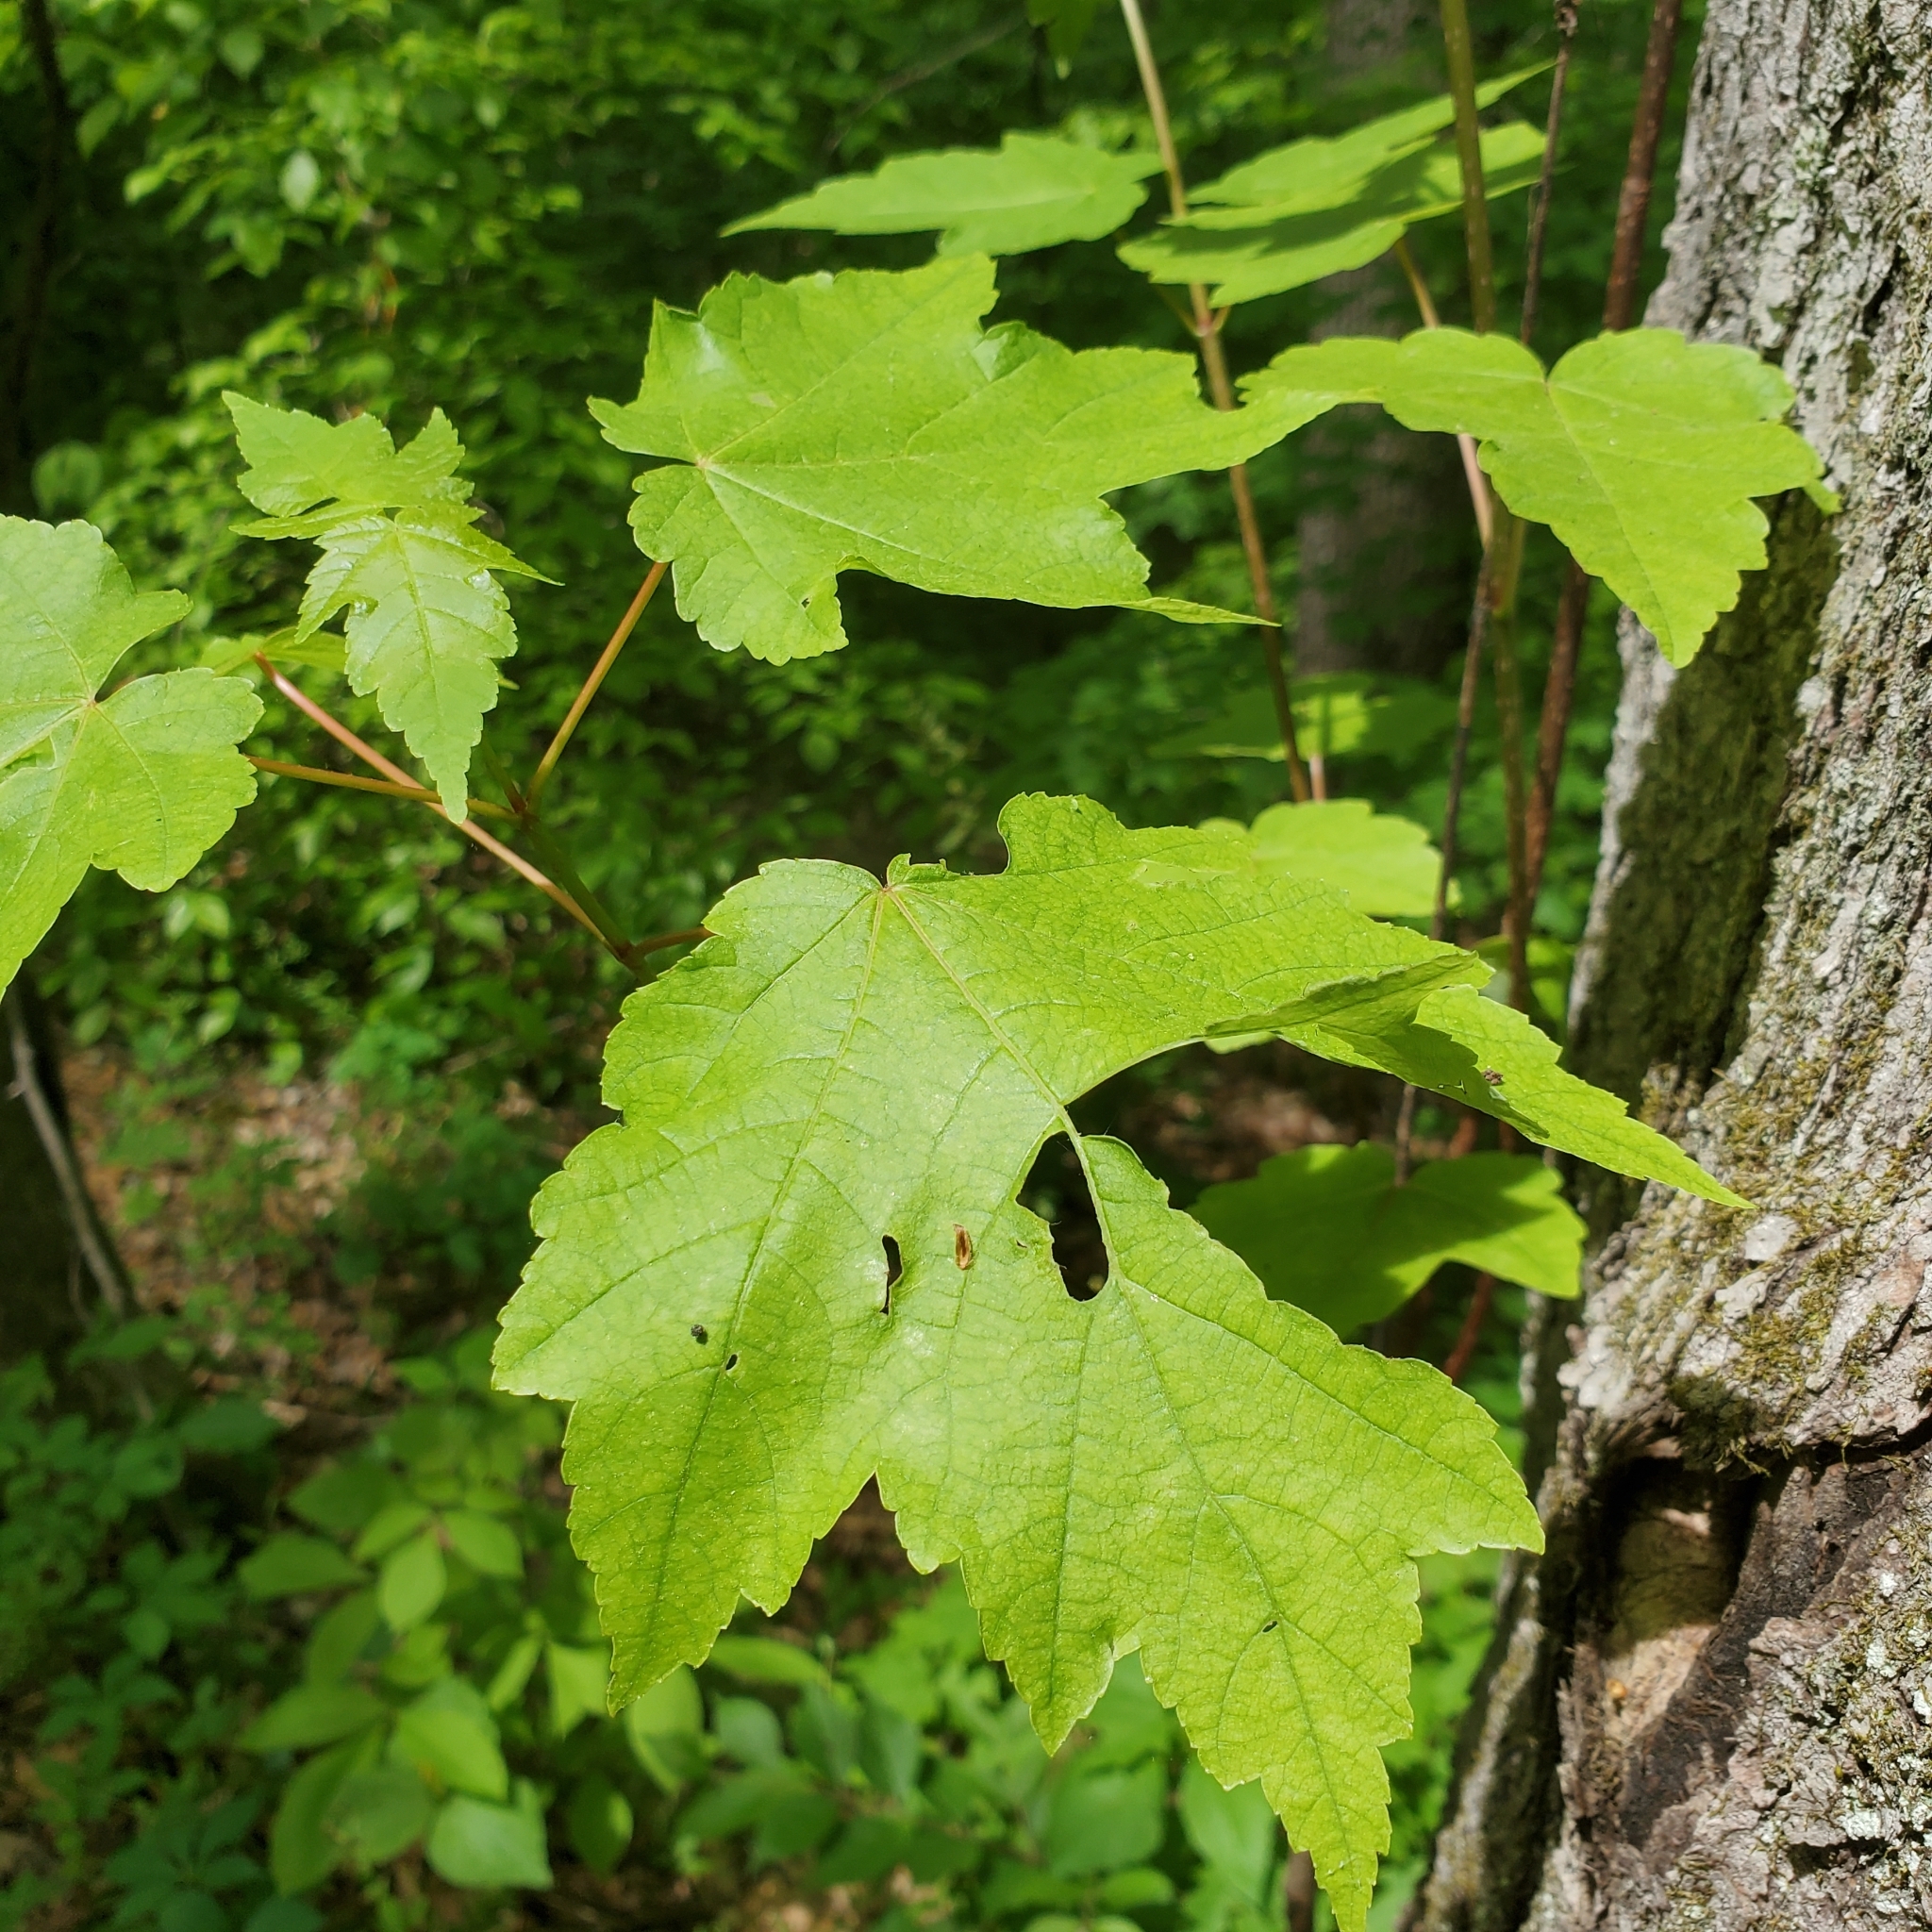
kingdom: Plantae
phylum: Tracheophyta
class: Magnoliopsida
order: Sapindales
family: Sapindaceae
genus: Acer
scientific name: Acer rubrum
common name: Red maple
